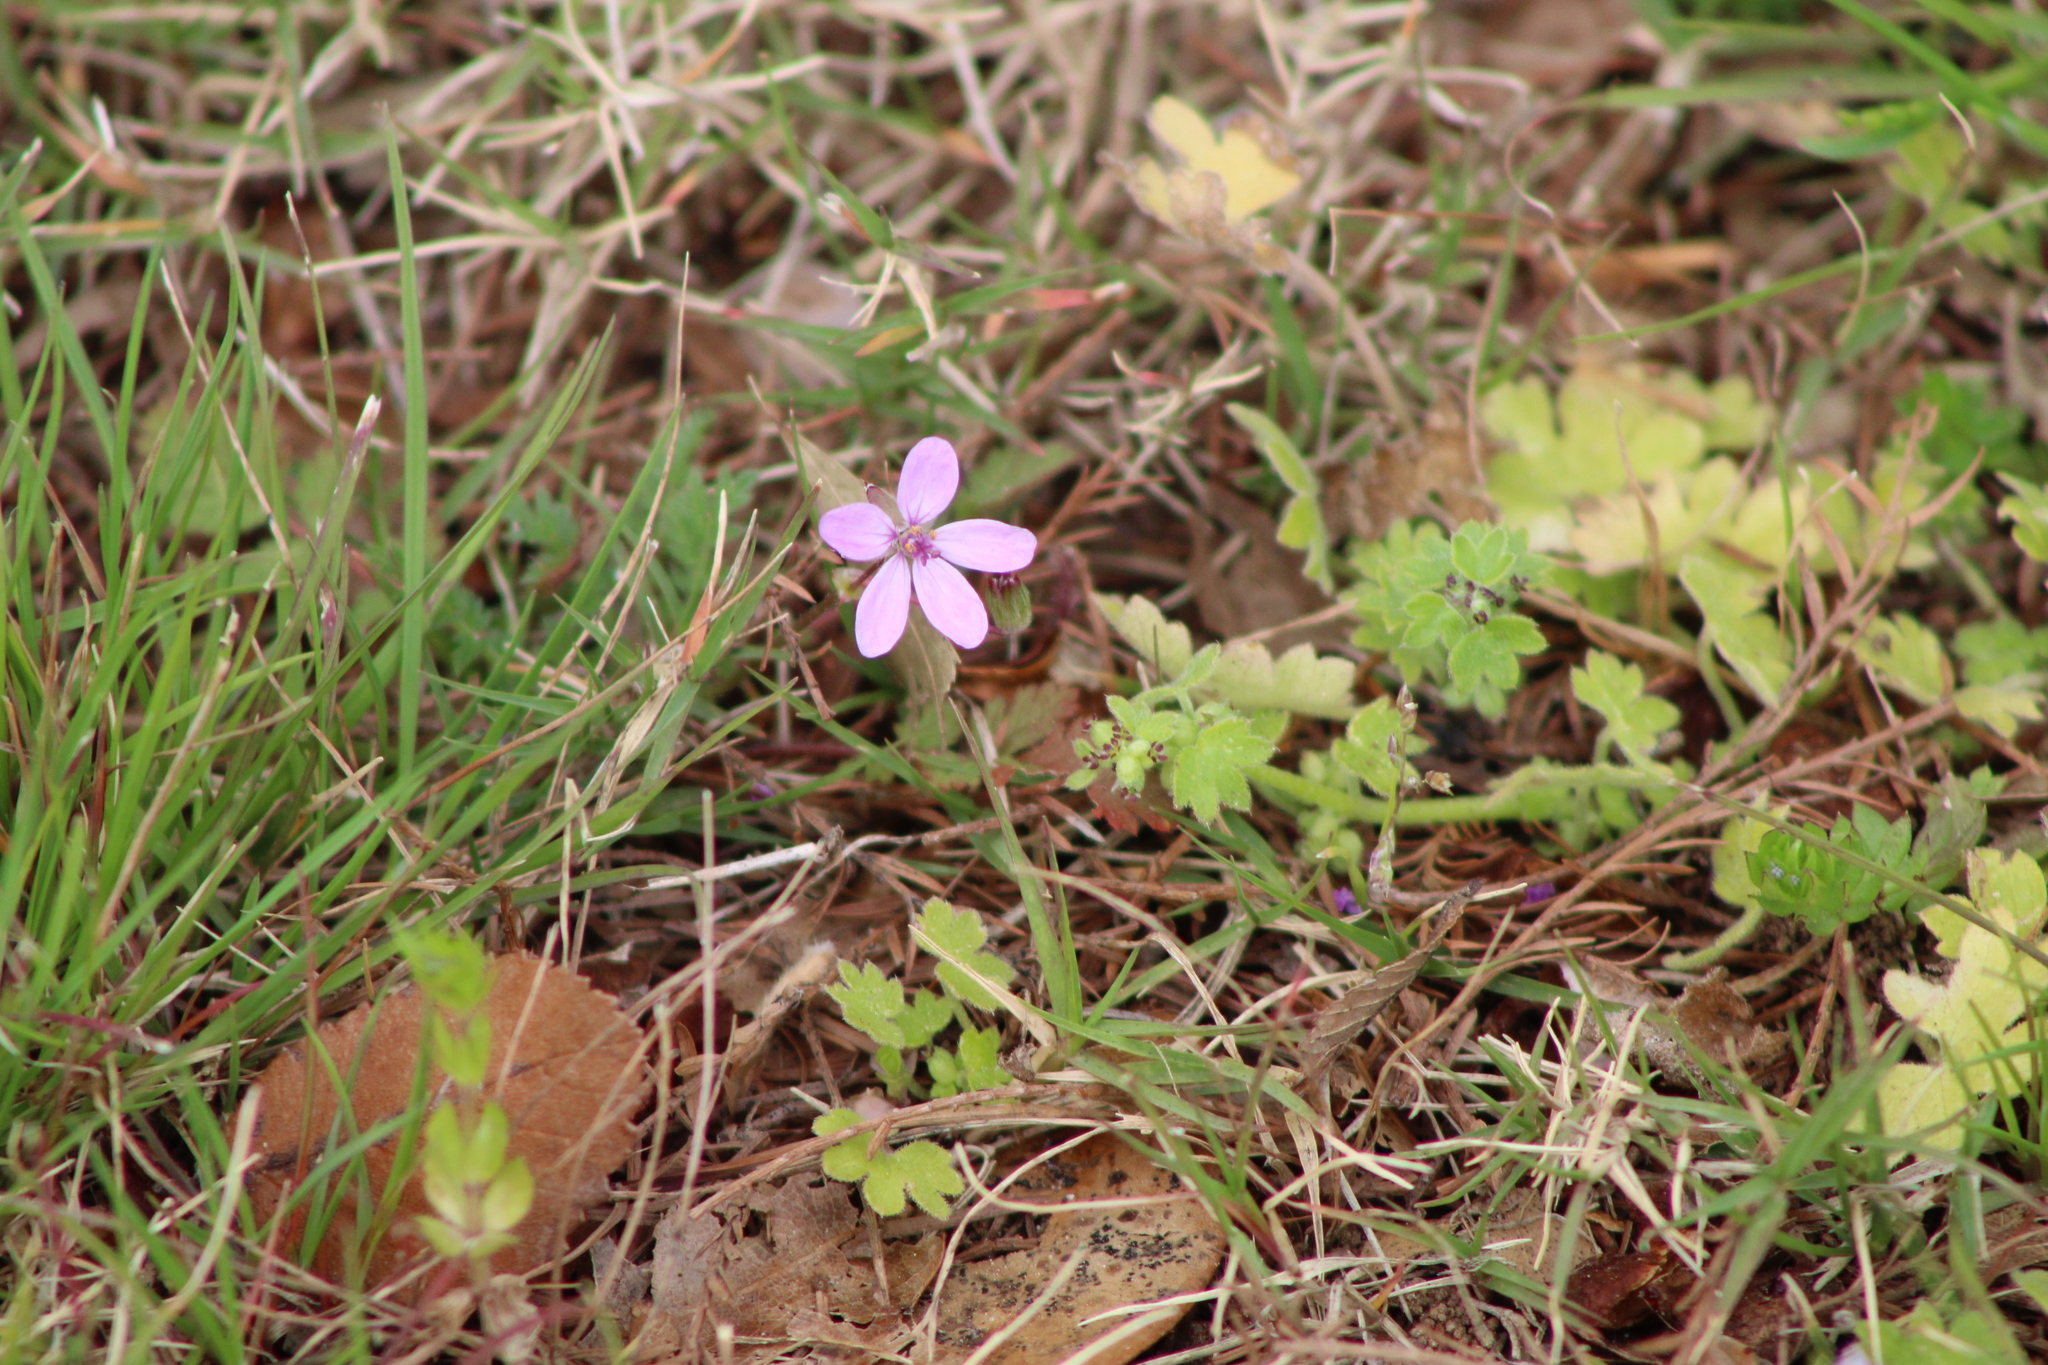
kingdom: Plantae
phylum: Tracheophyta
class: Magnoliopsida
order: Geraniales
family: Geraniaceae
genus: Erodium
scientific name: Erodium cicutarium
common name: Common stork's-bill
